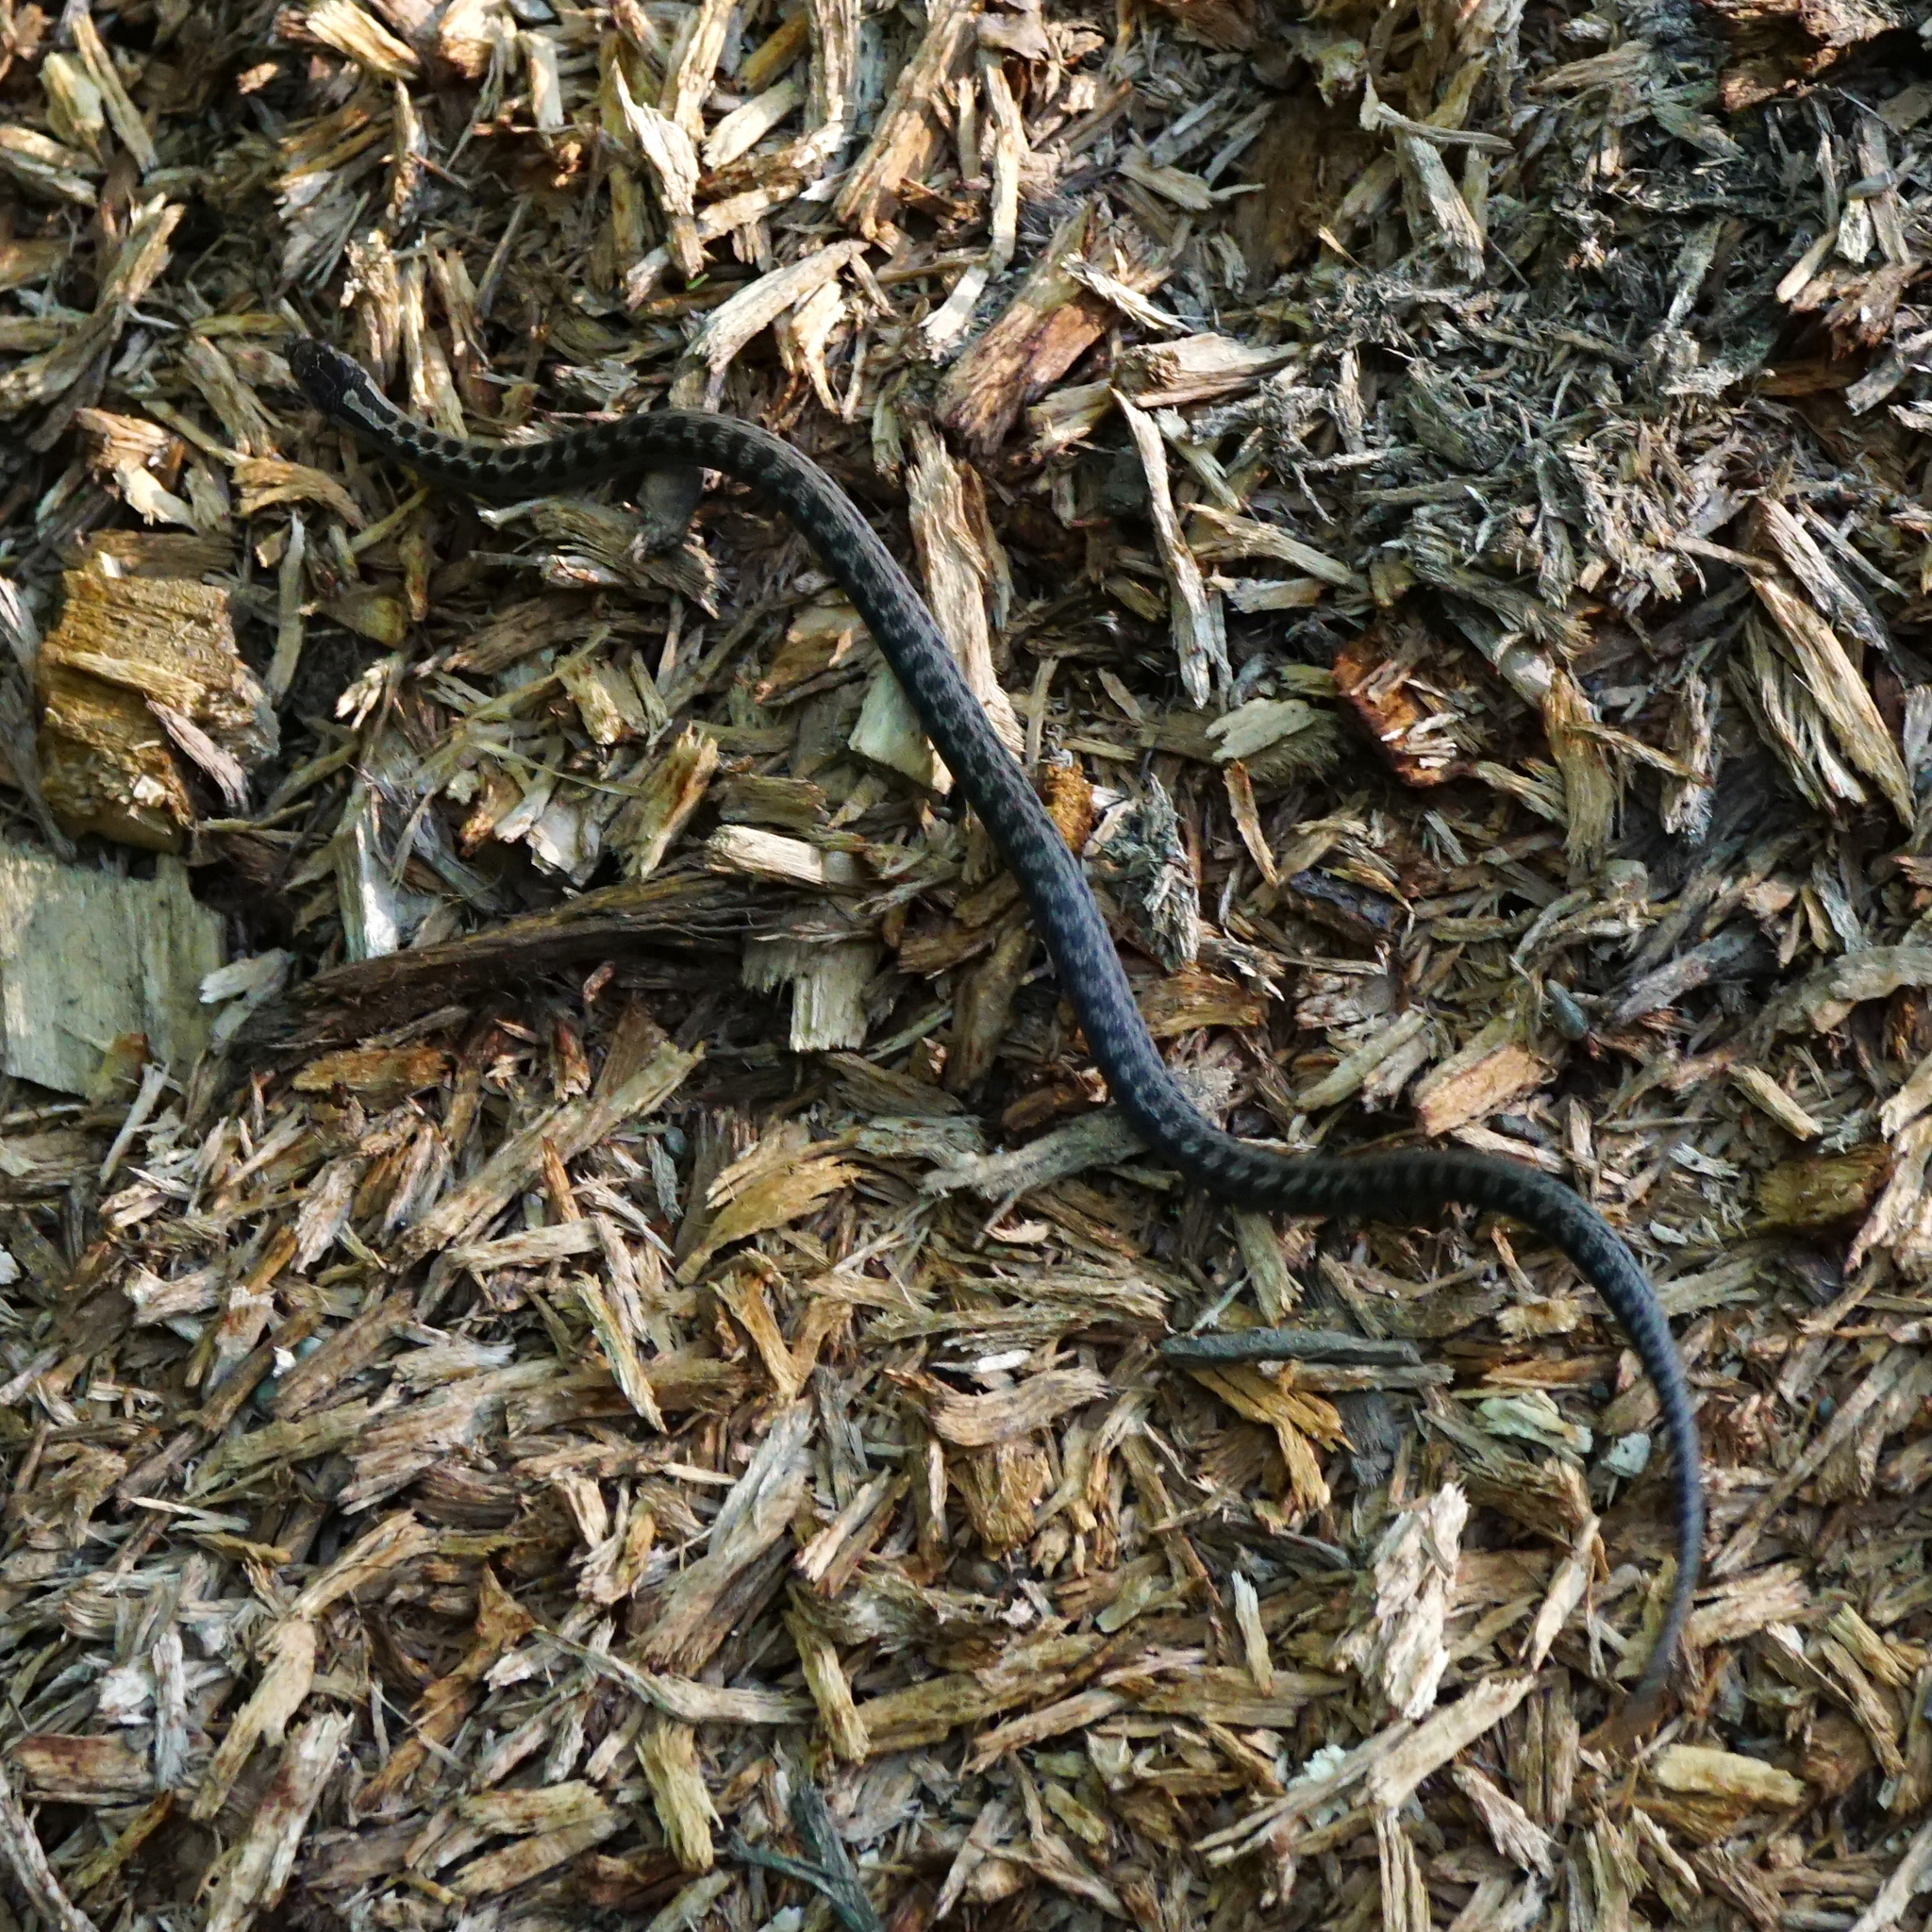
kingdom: Animalia
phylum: Chordata
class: Squamata
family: Colubridae
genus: Coronella
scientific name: Coronella austriaca
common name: Smooth snake
